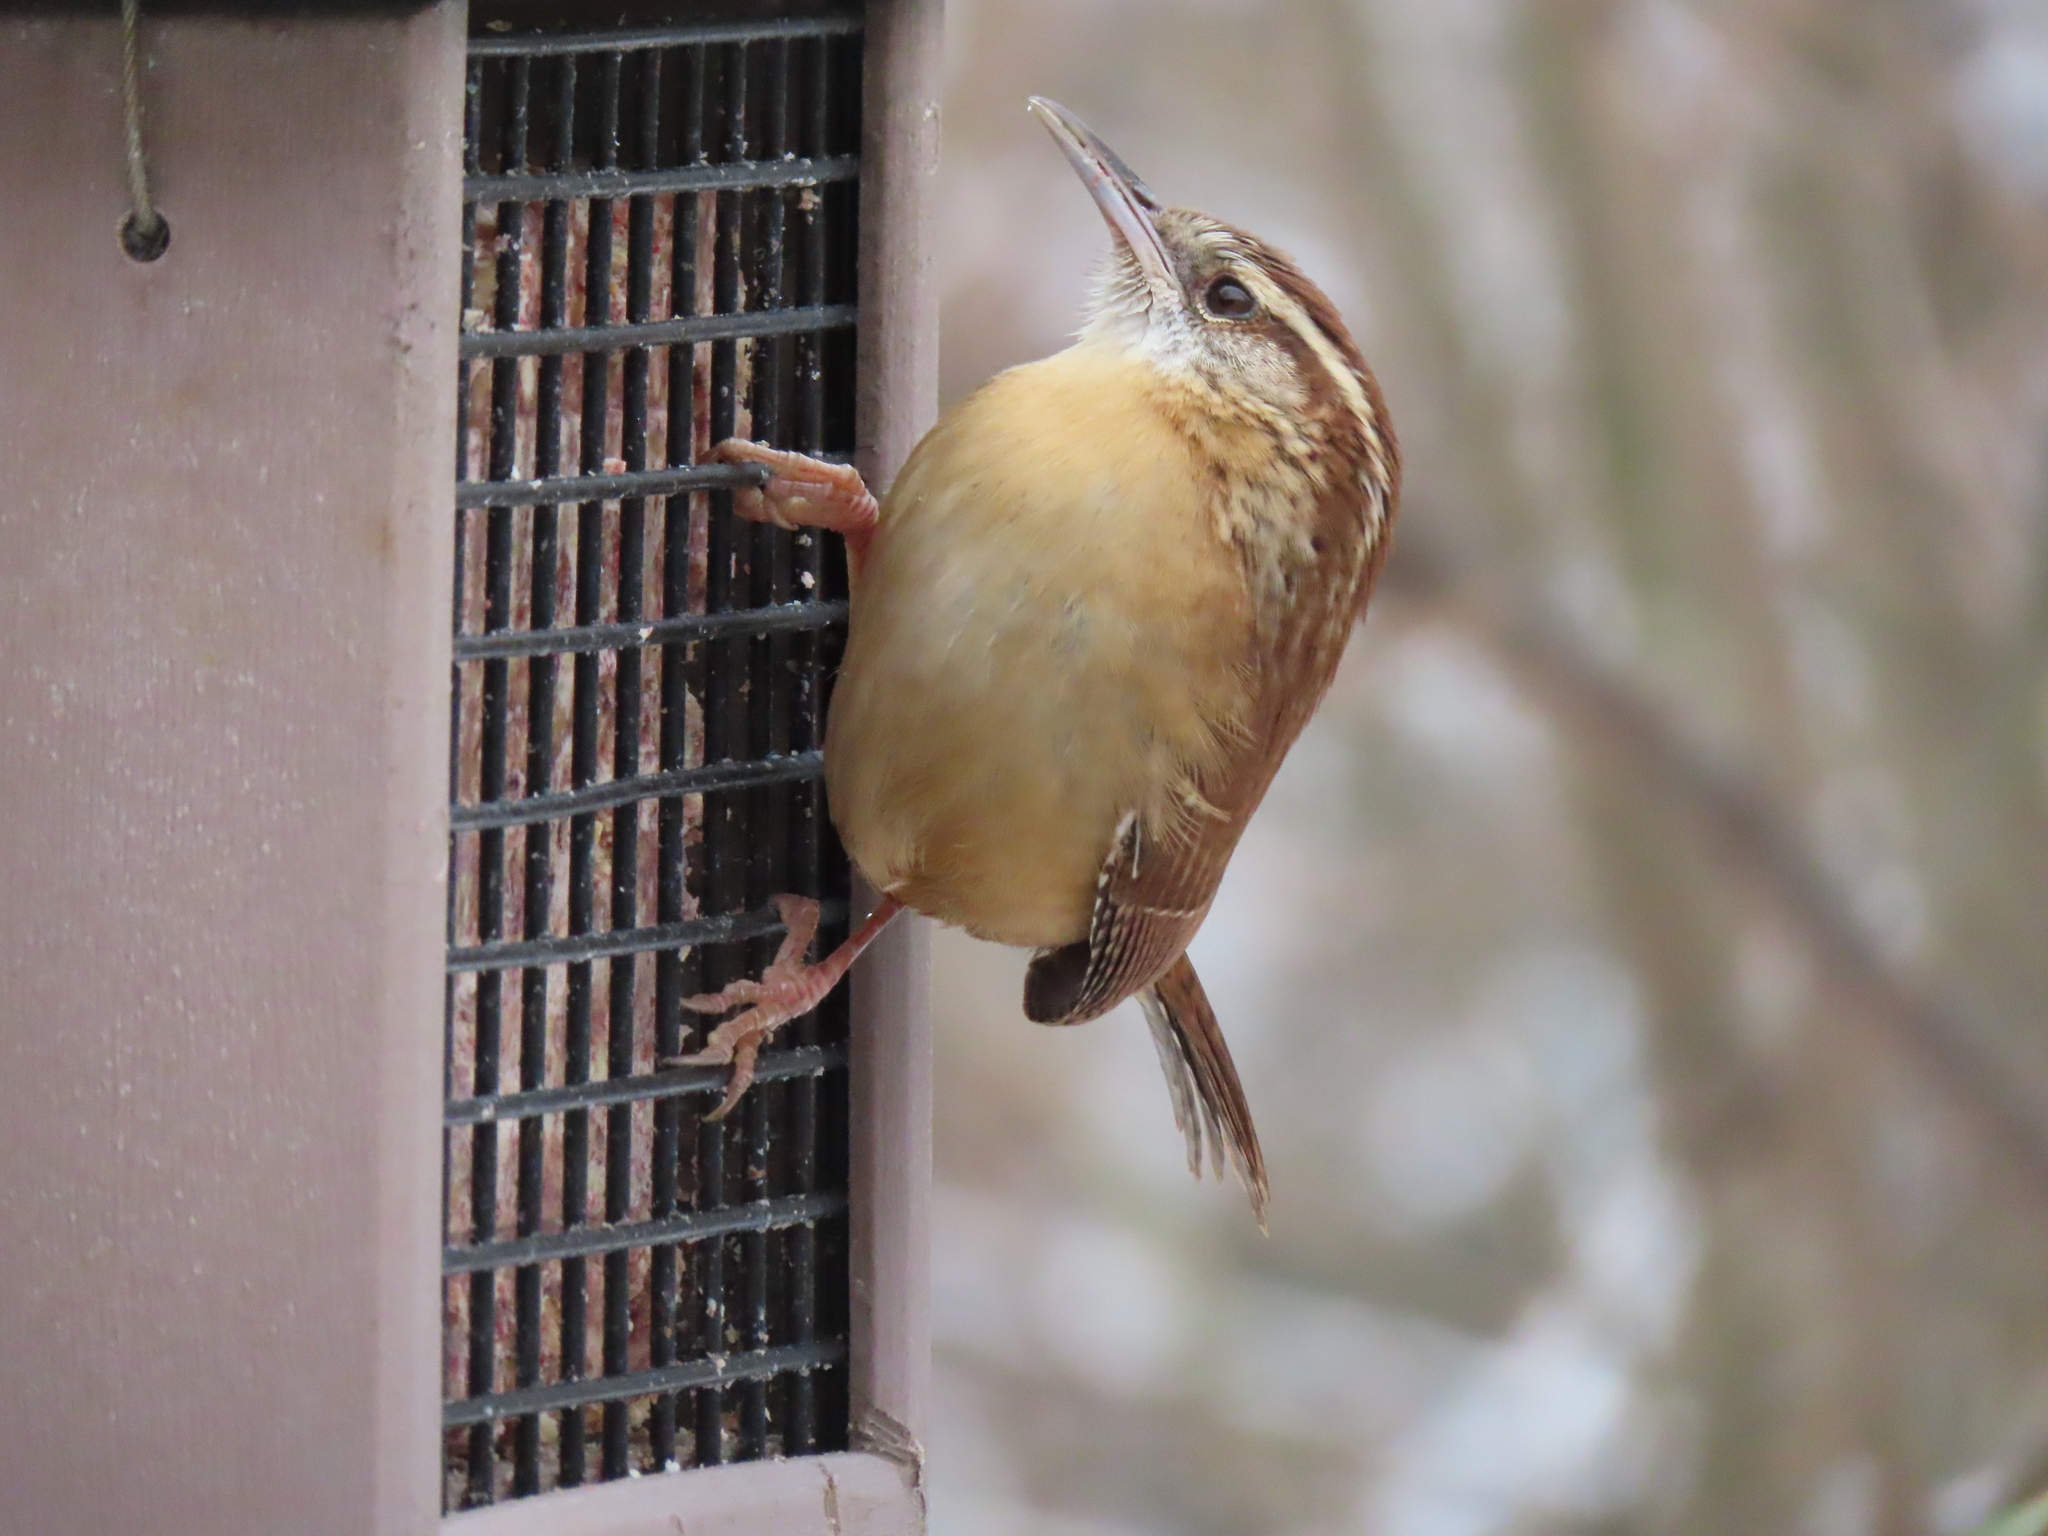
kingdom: Animalia
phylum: Chordata
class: Aves
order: Passeriformes
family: Troglodytidae
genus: Thryothorus
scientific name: Thryothorus ludovicianus
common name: Carolina wren
